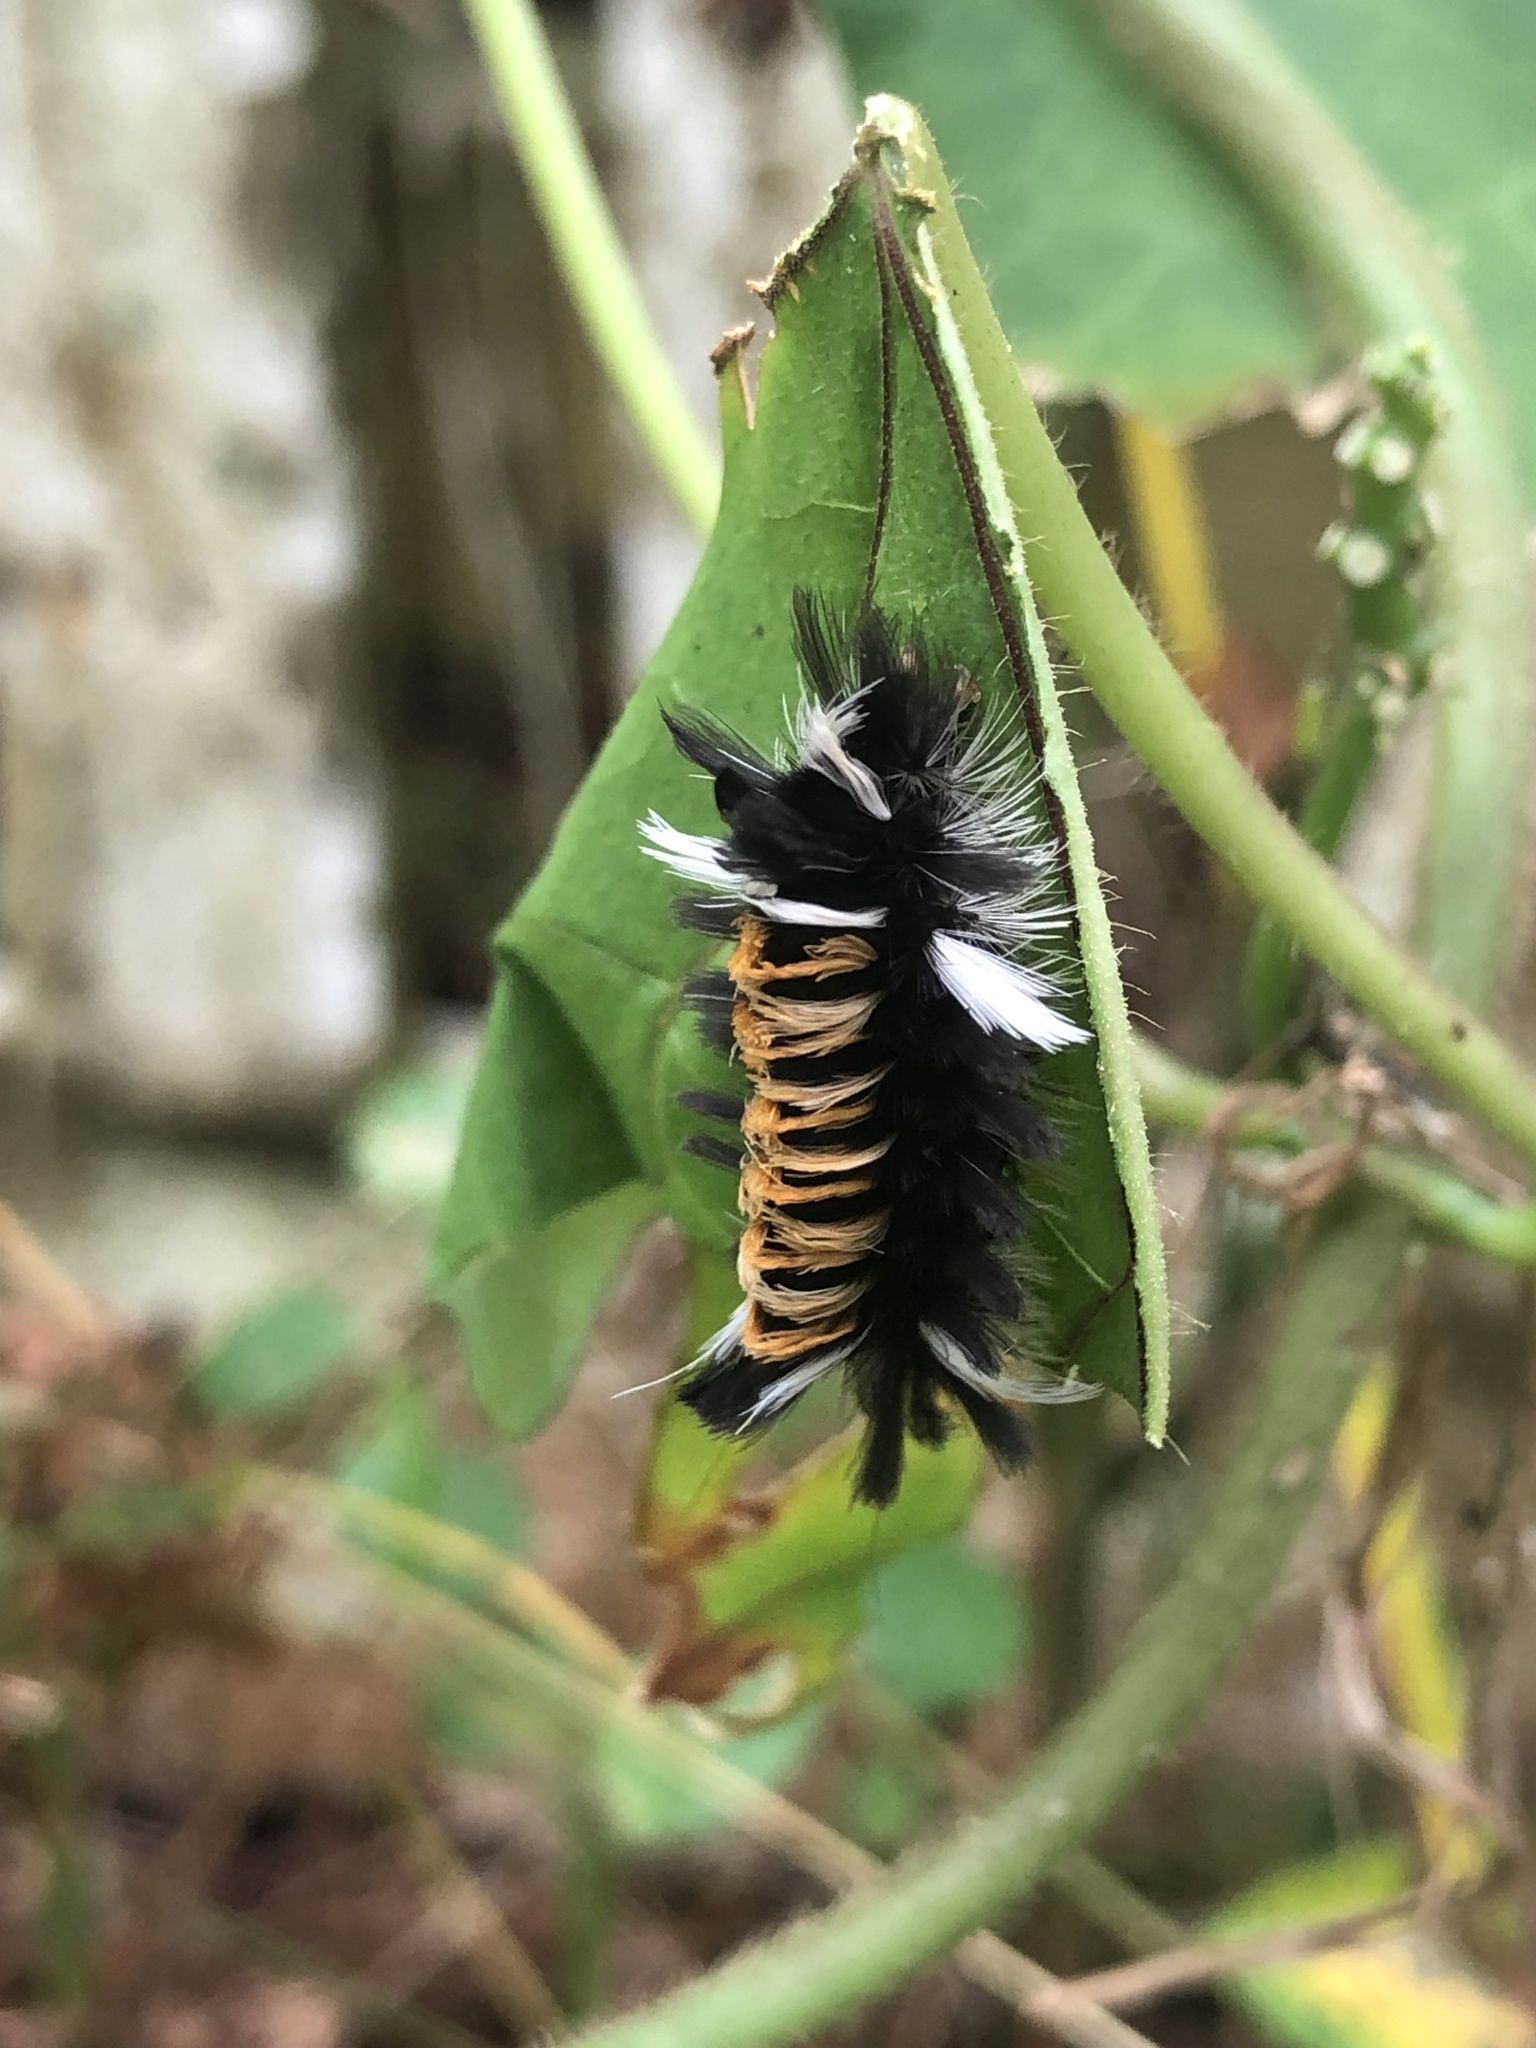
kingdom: Animalia
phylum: Arthropoda
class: Insecta
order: Lepidoptera
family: Erebidae
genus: Euchaetes
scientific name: Euchaetes egle
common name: Milkweed tussock moth
